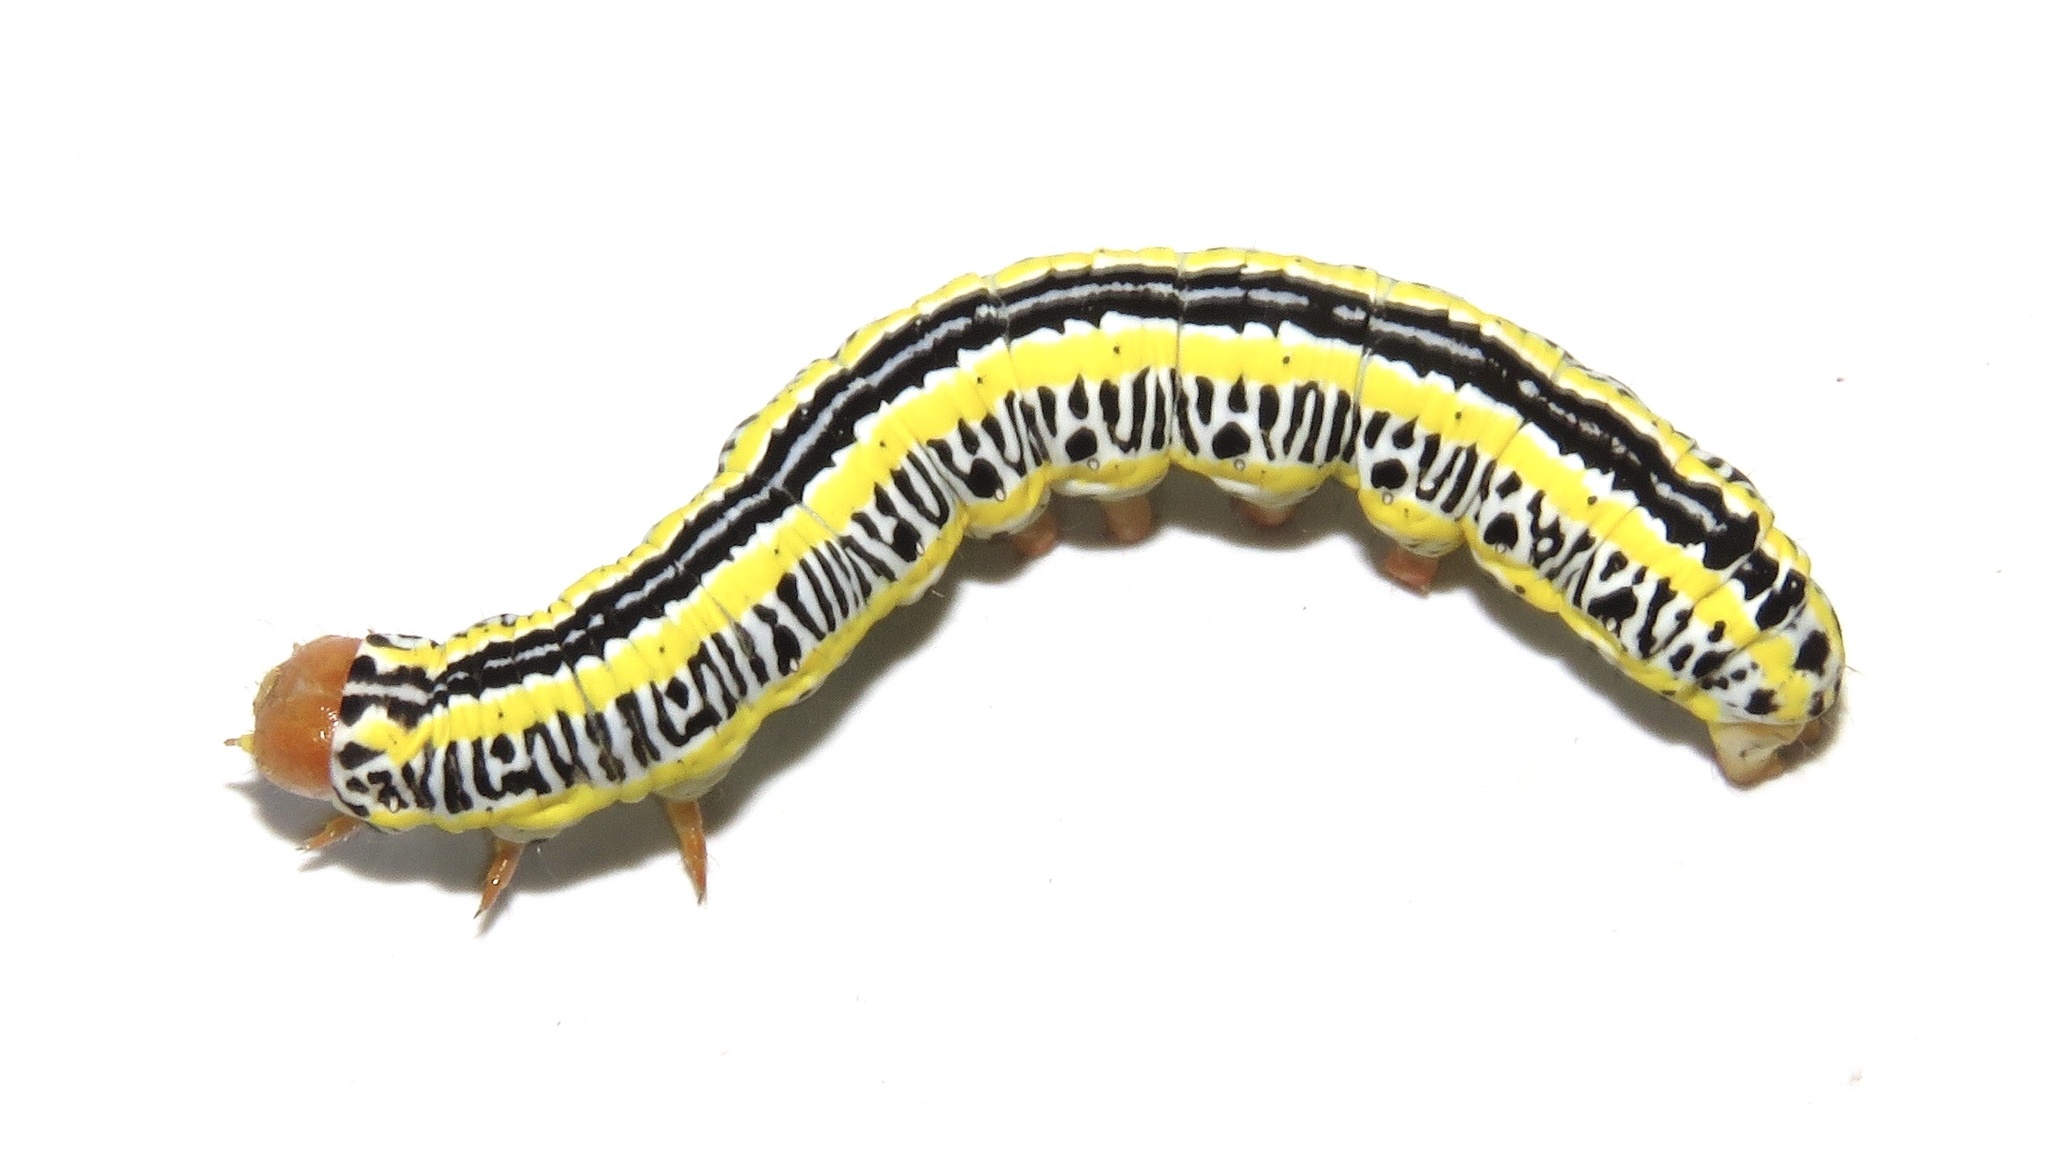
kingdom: Animalia
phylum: Arthropoda
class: Insecta
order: Lepidoptera
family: Noctuidae
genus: Melanchra
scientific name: Melanchra picta
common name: Zebra caterpillar
